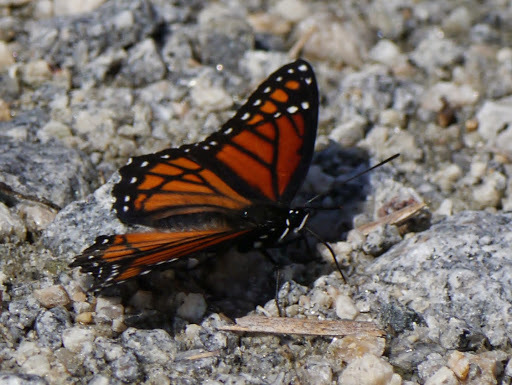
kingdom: Animalia
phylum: Arthropoda
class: Insecta
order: Lepidoptera
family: Nymphalidae
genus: Limenitis
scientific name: Limenitis archippus
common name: Viceroy
